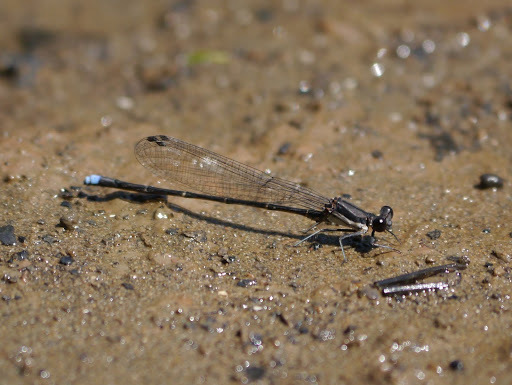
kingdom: Animalia
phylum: Arthropoda
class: Insecta
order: Odonata
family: Coenagrionidae
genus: Argia
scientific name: Argia tibialis
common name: Blue-tipped dancer
